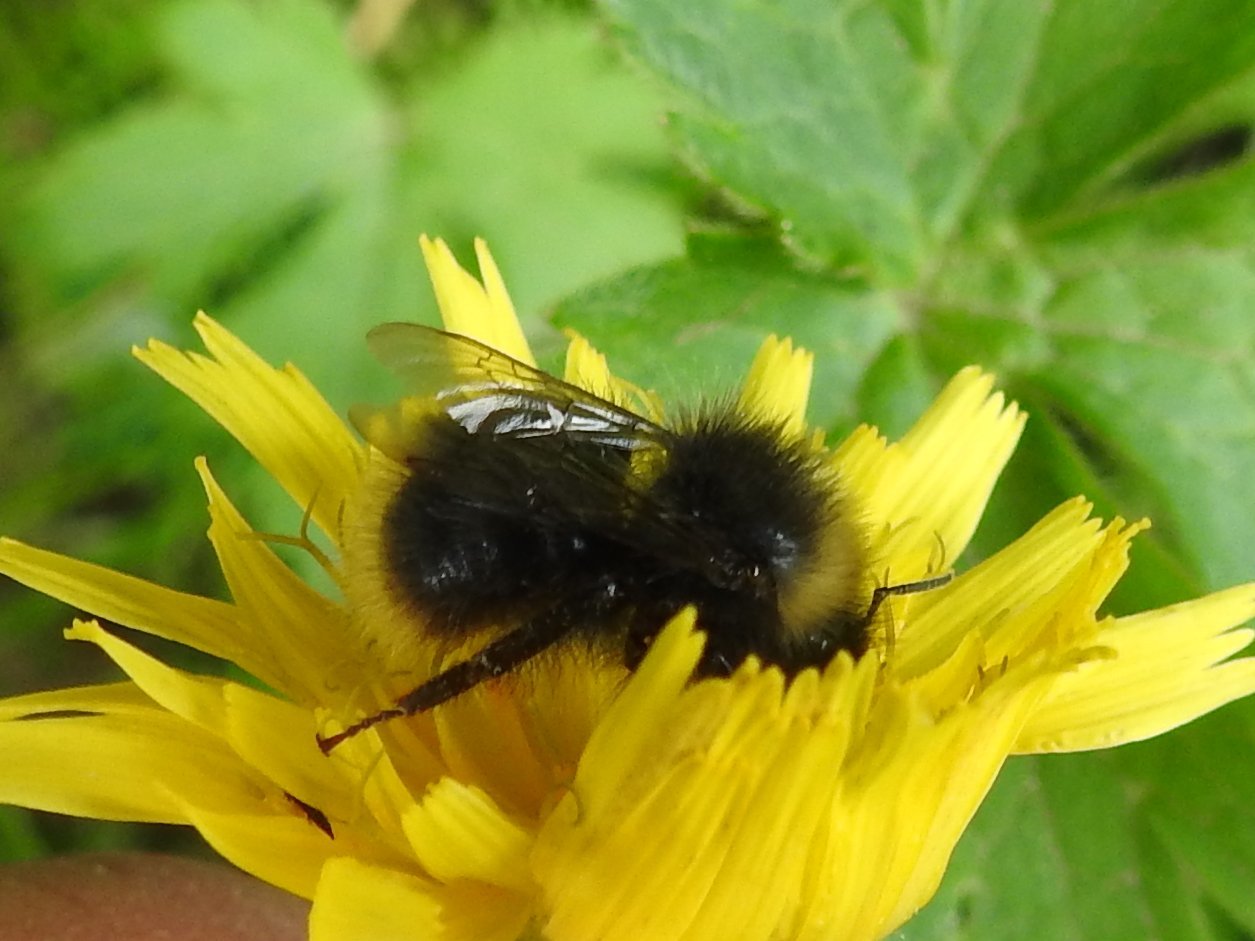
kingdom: Animalia
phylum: Arthropoda
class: Insecta
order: Hymenoptera
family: Apidae
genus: Bombus
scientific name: Bombus pratorum
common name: Early humble-bee
